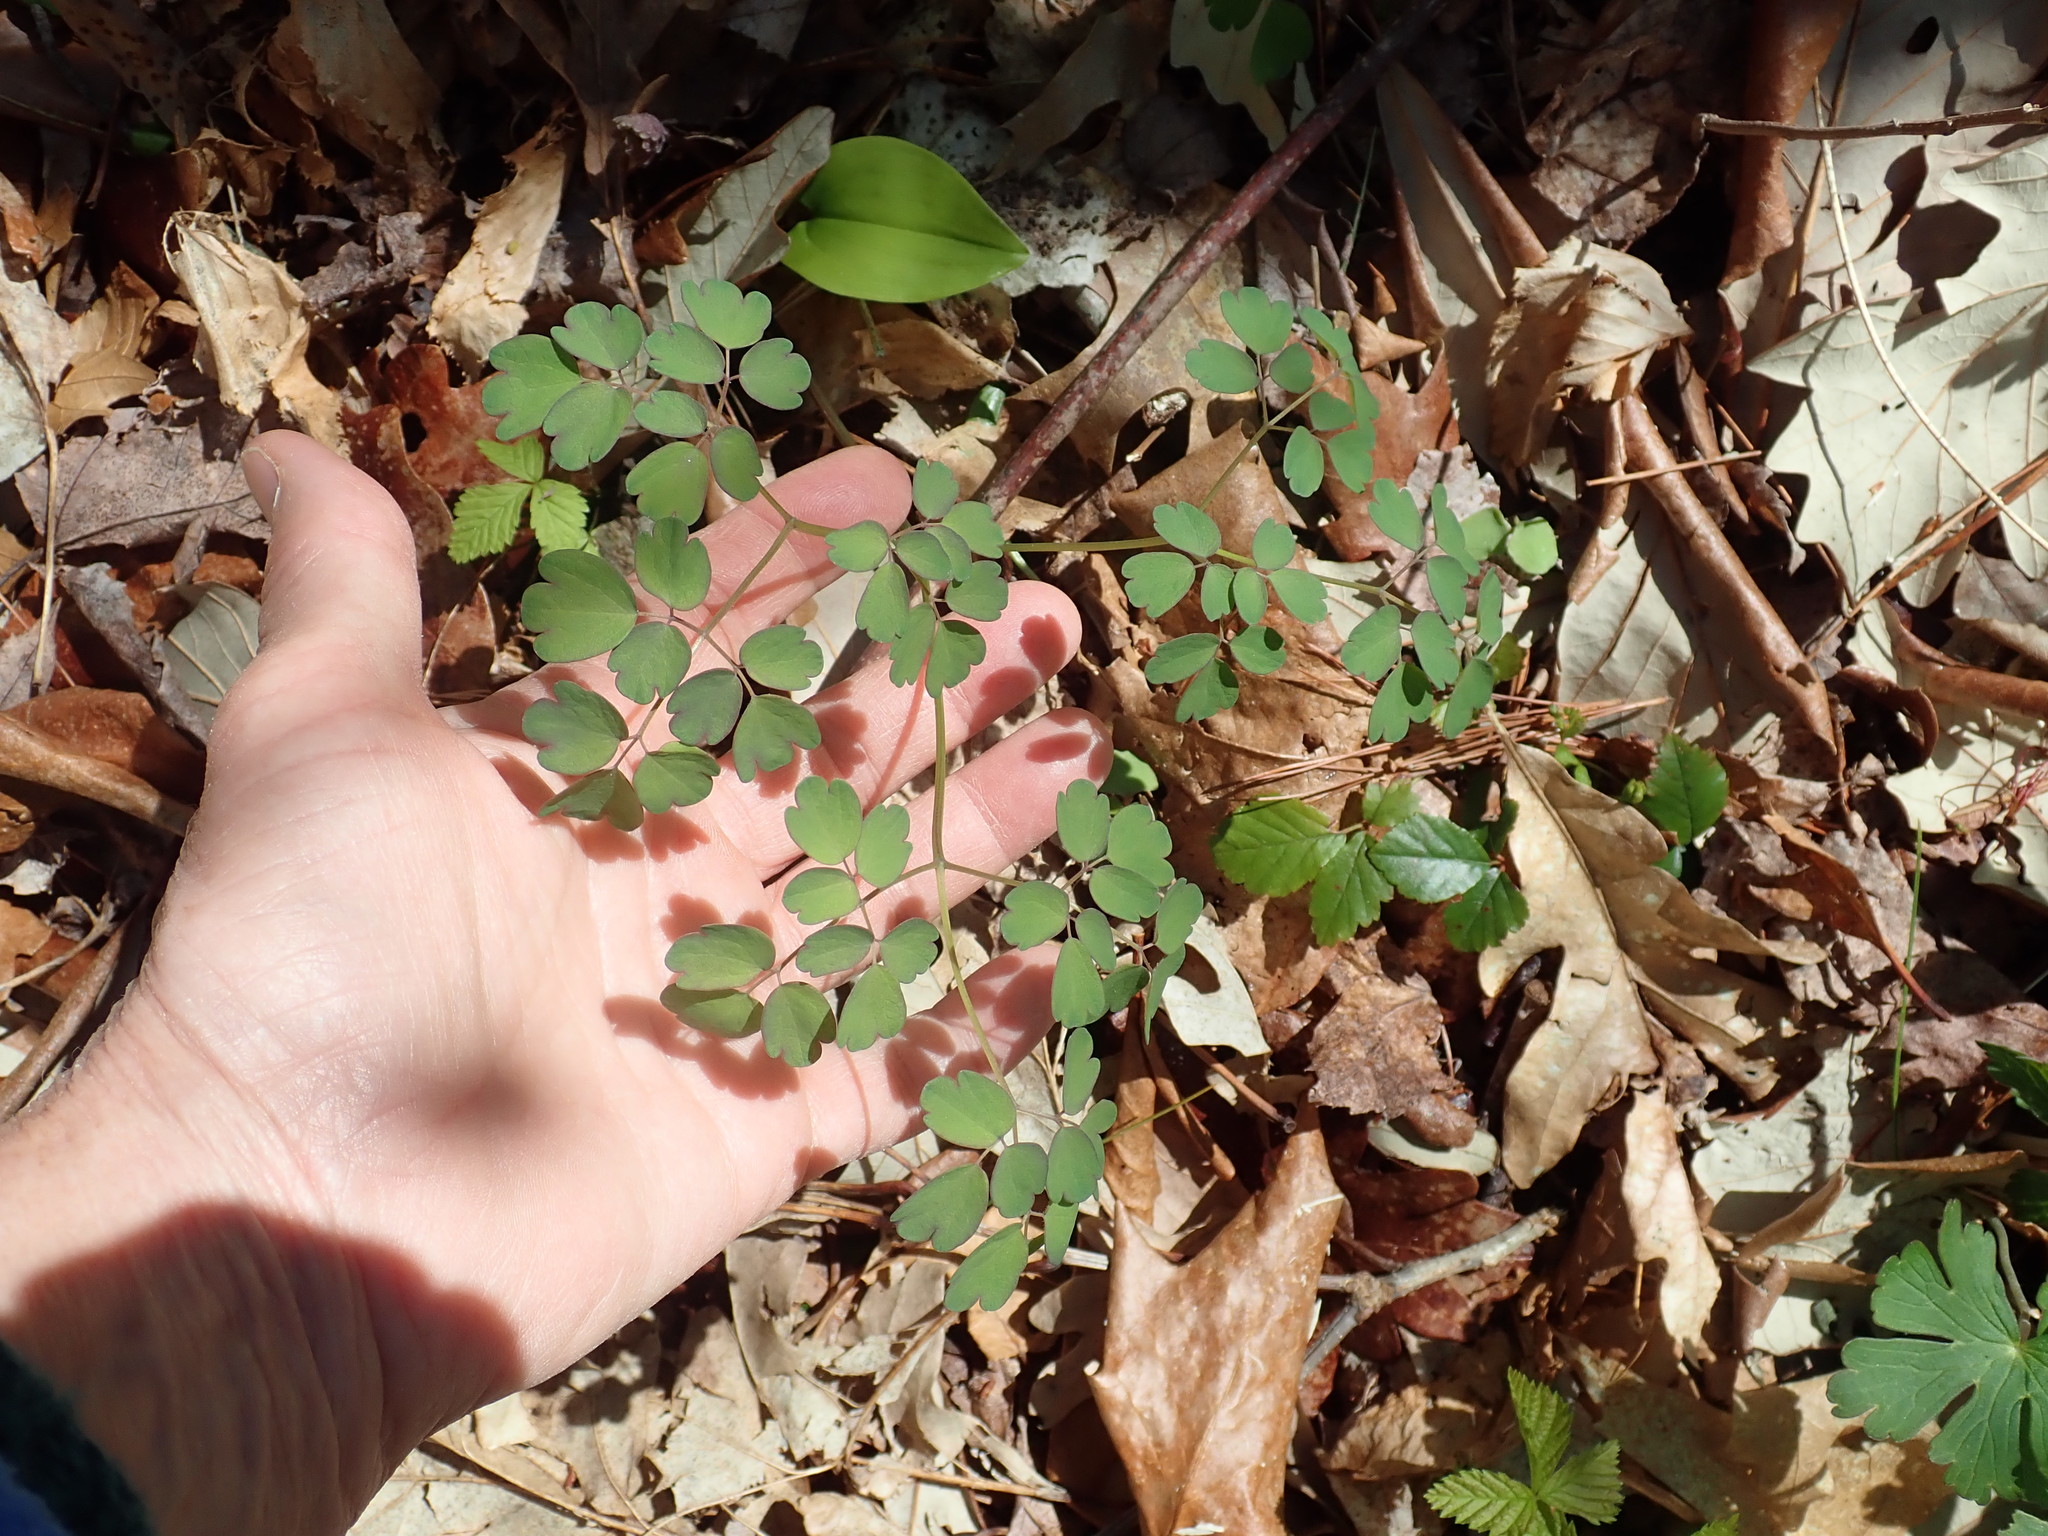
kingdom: Plantae
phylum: Tracheophyta
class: Magnoliopsida
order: Ranunculales
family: Ranunculaceae
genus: Thalictrum
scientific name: Thalictrum pubescens
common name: King-of-the-meadow
